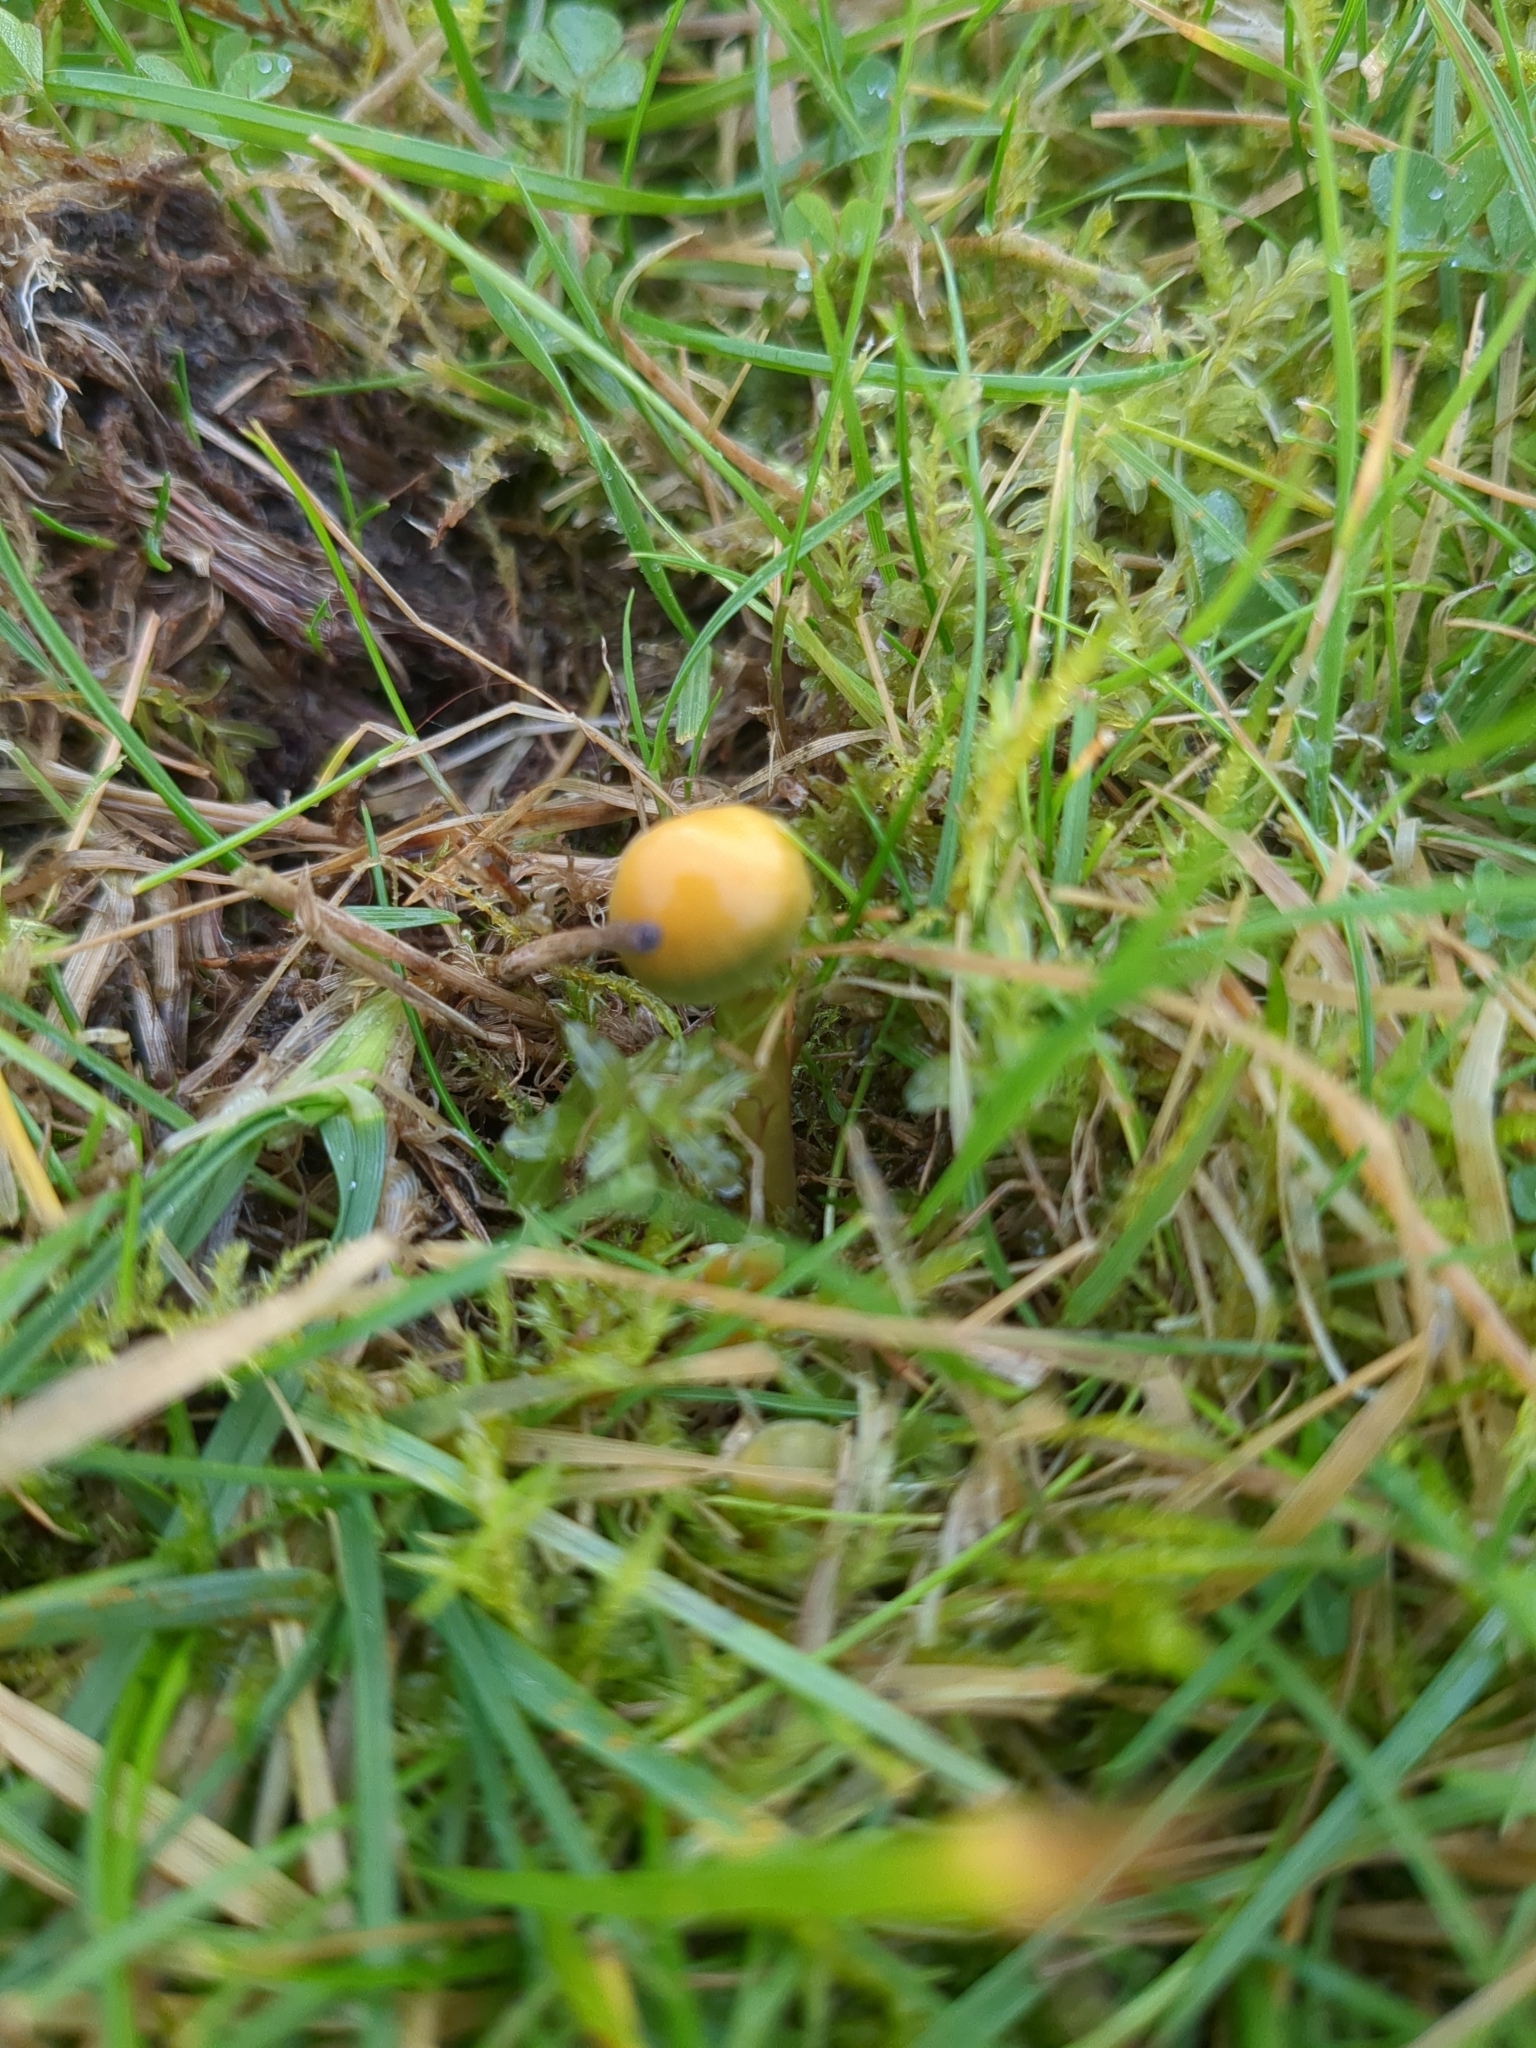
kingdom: Fungi
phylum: Basidiomycota
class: Agaricomycetes
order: Agaricales
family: Hygrophoraceae
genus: Gliophorus
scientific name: Gliophorus psittacinus
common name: Parrot wax-cap
